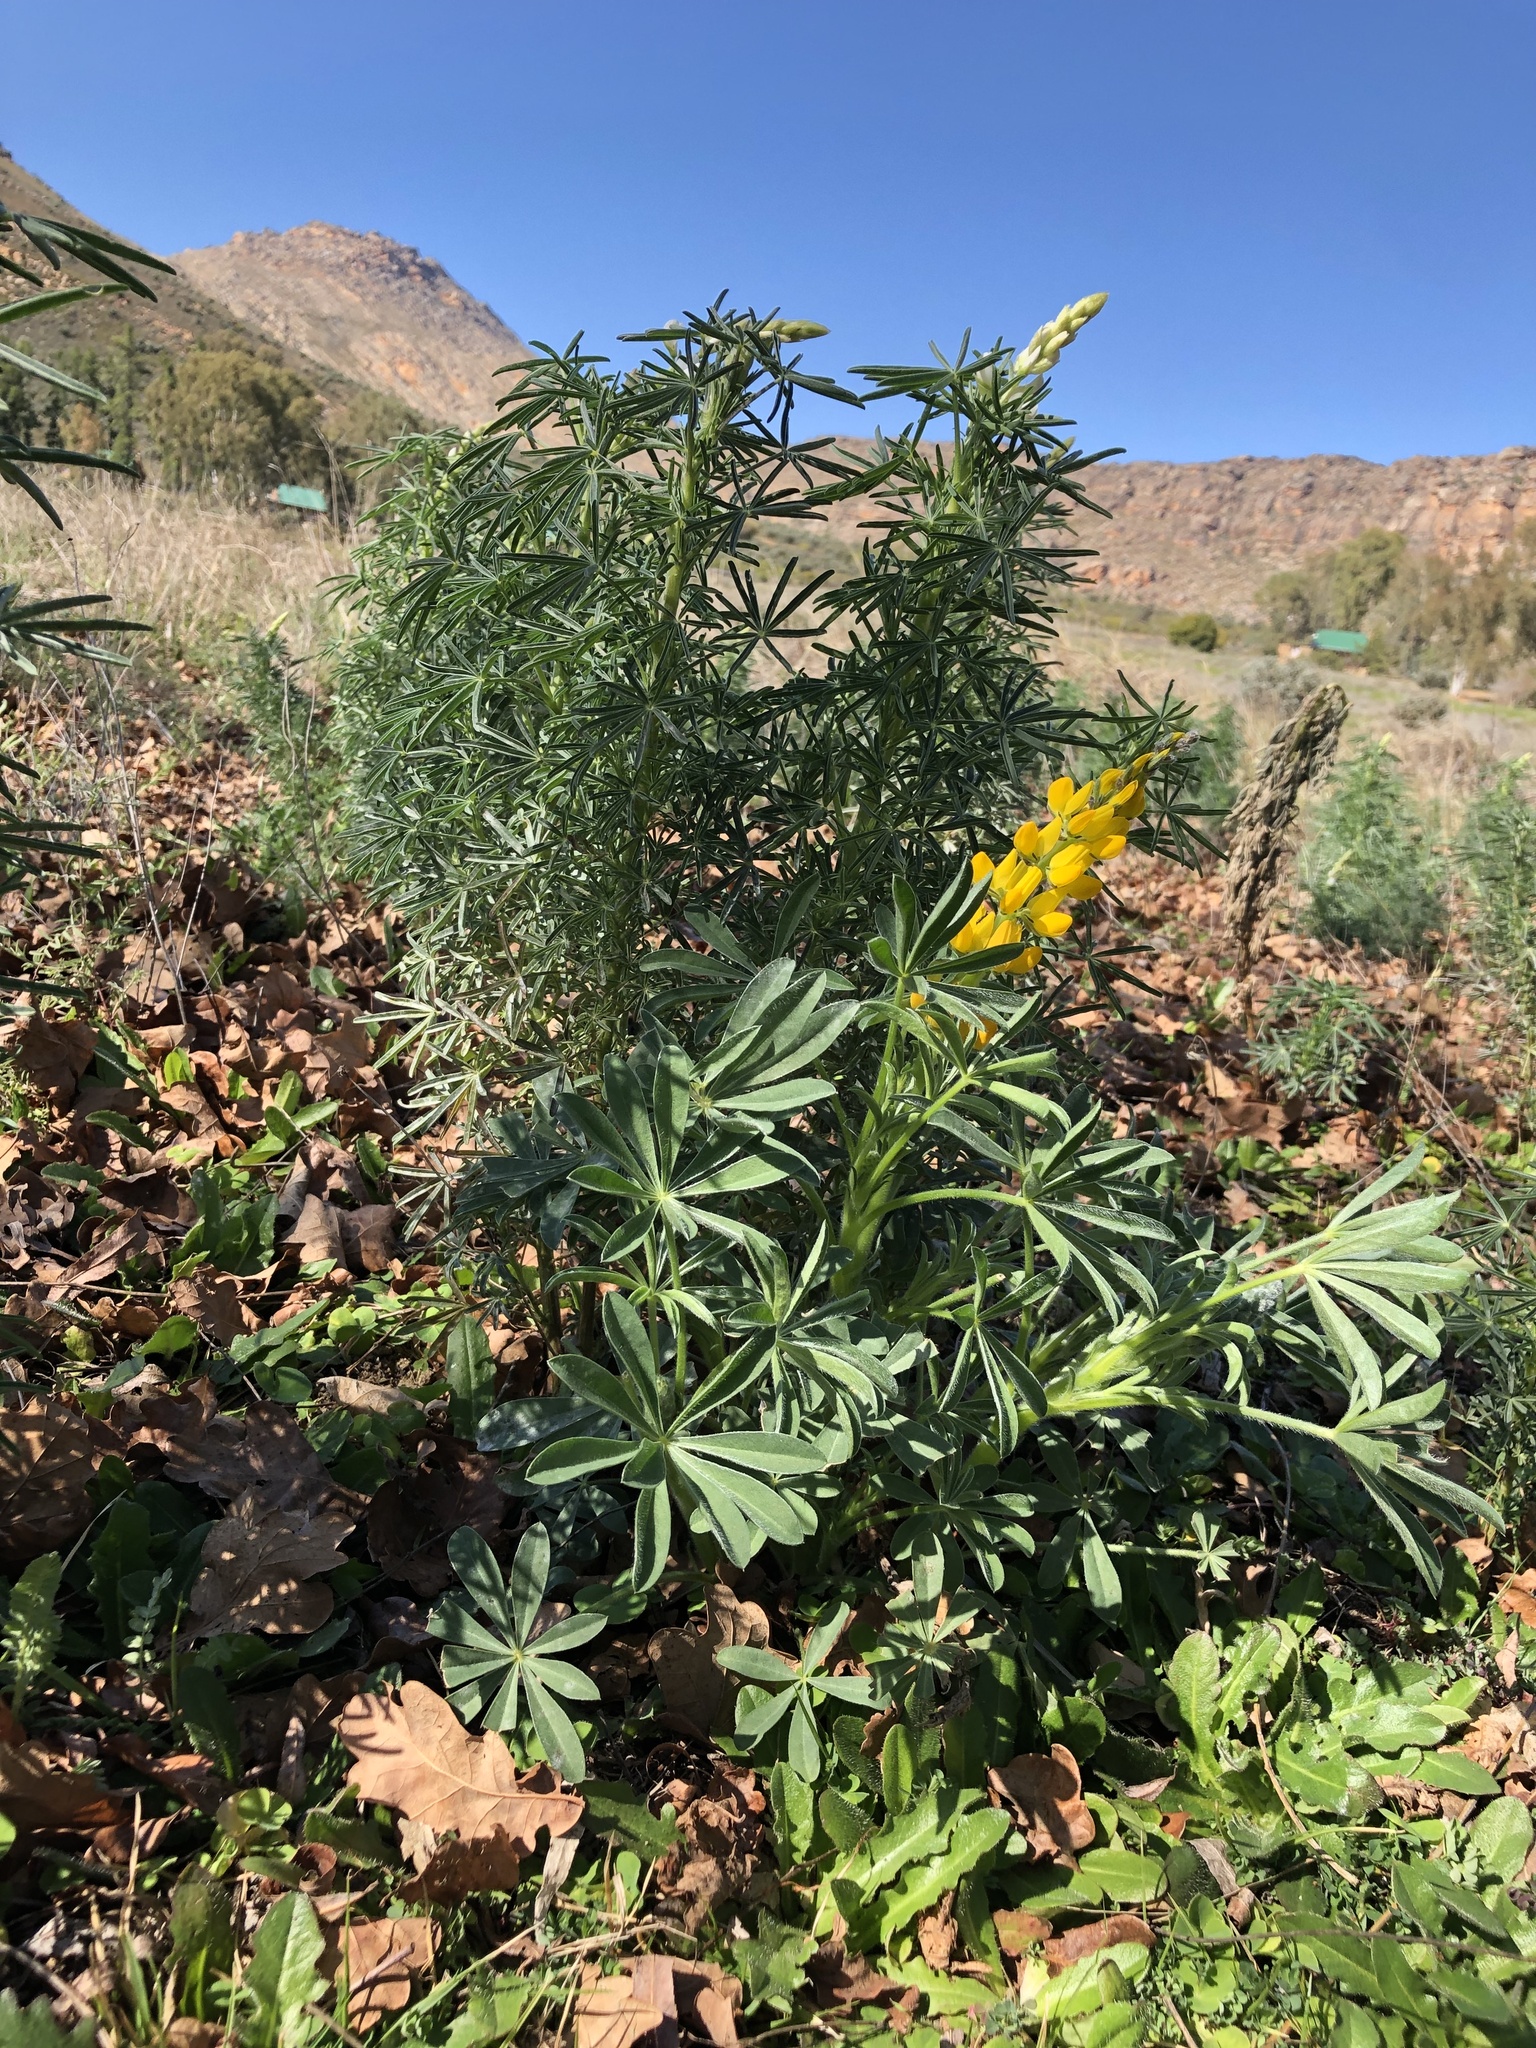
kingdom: Plantae
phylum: Tracheophyta
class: Magnoliopsida
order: Fabales
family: Fabaceae
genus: Lupinus
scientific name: Lupinus luteus
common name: European yellow lupine
